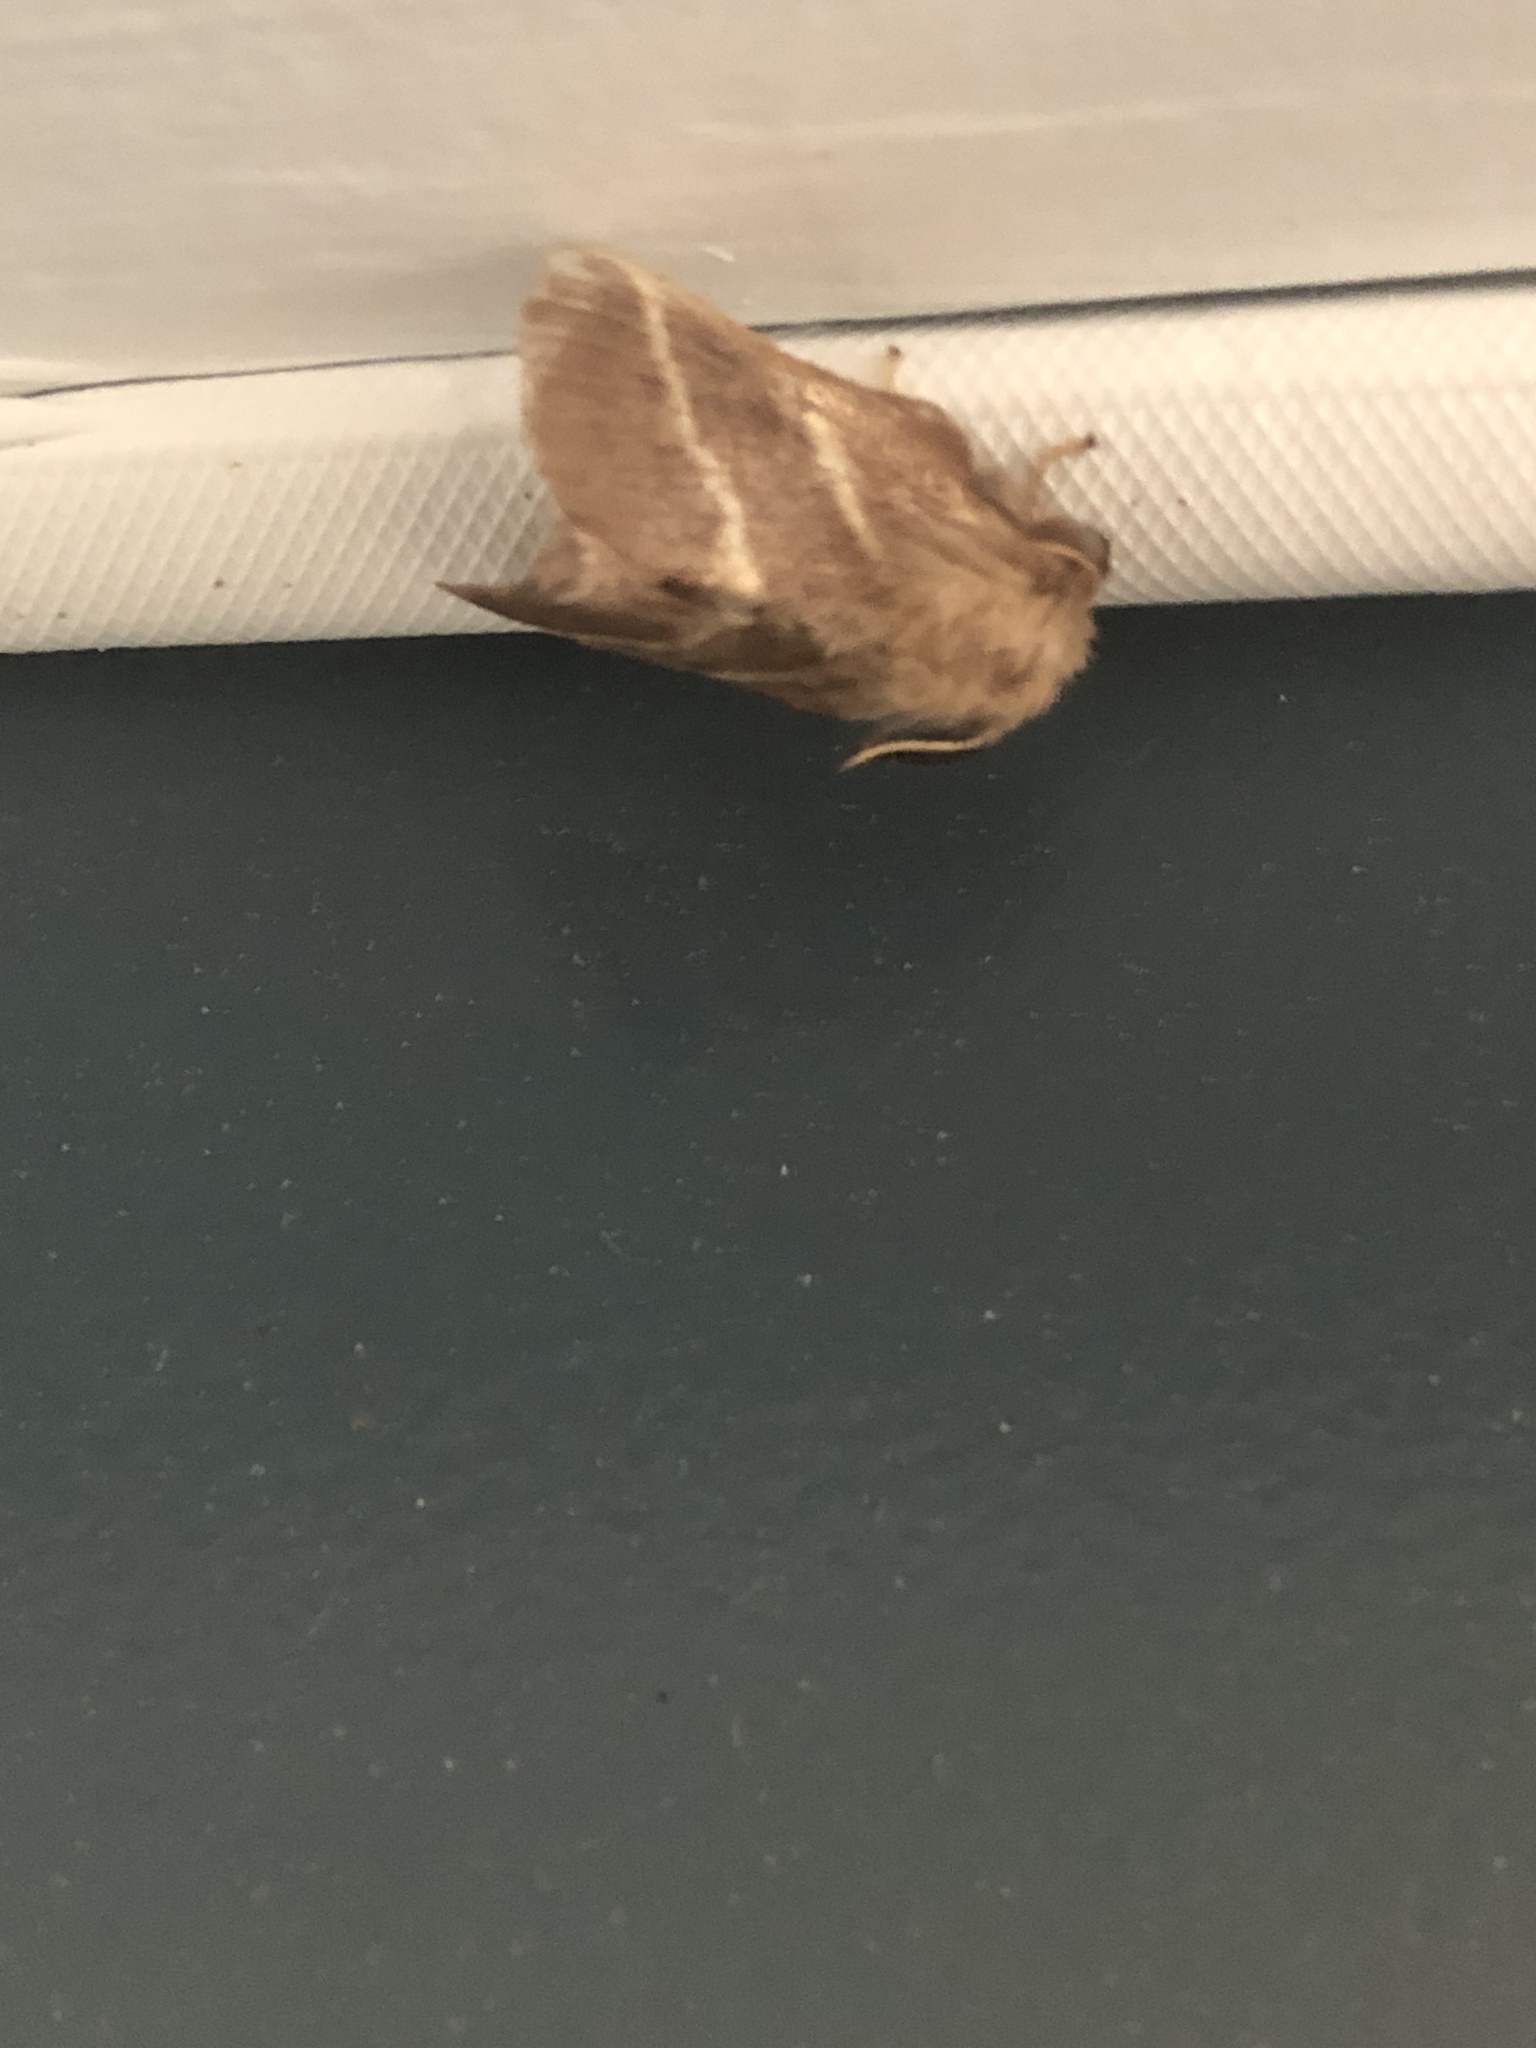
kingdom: Animalia
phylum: Arthropoda
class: Insecta
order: Lepidoptera
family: Lasiocampidae
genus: Malacosoma
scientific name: Malacosoma americana
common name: Eastern tent caterpillar moth
